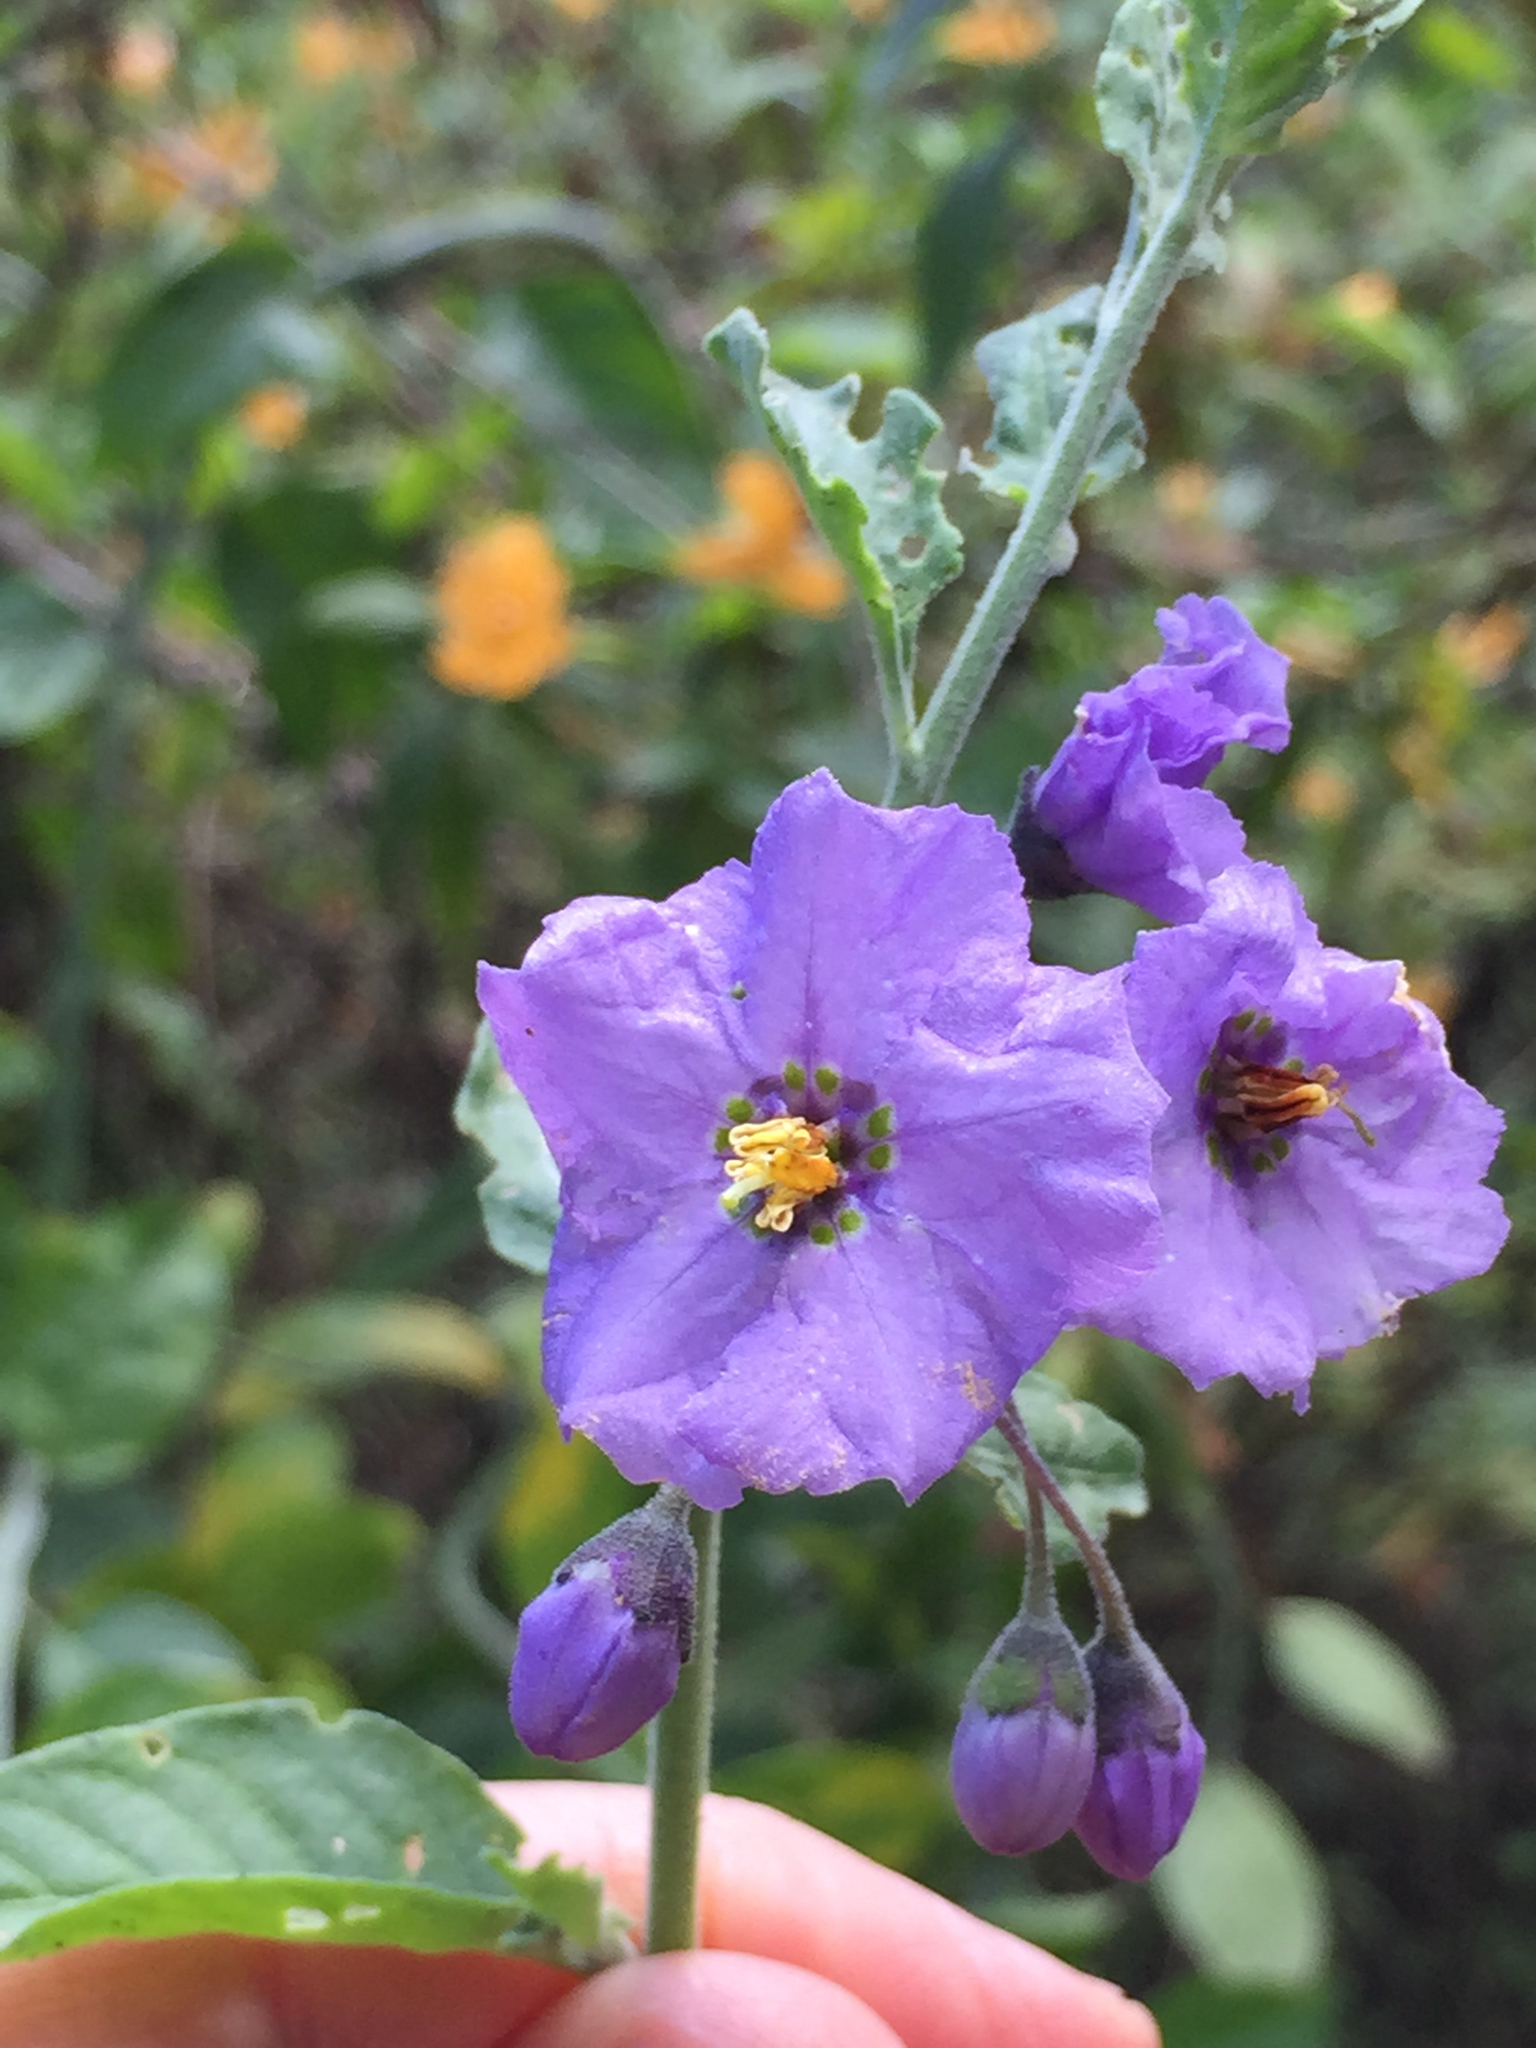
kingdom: Plantae
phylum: Tracheophyta
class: Magnoliopsida
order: Solanales
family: Solanaceae
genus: Solanum
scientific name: Solanum umbelliferum
